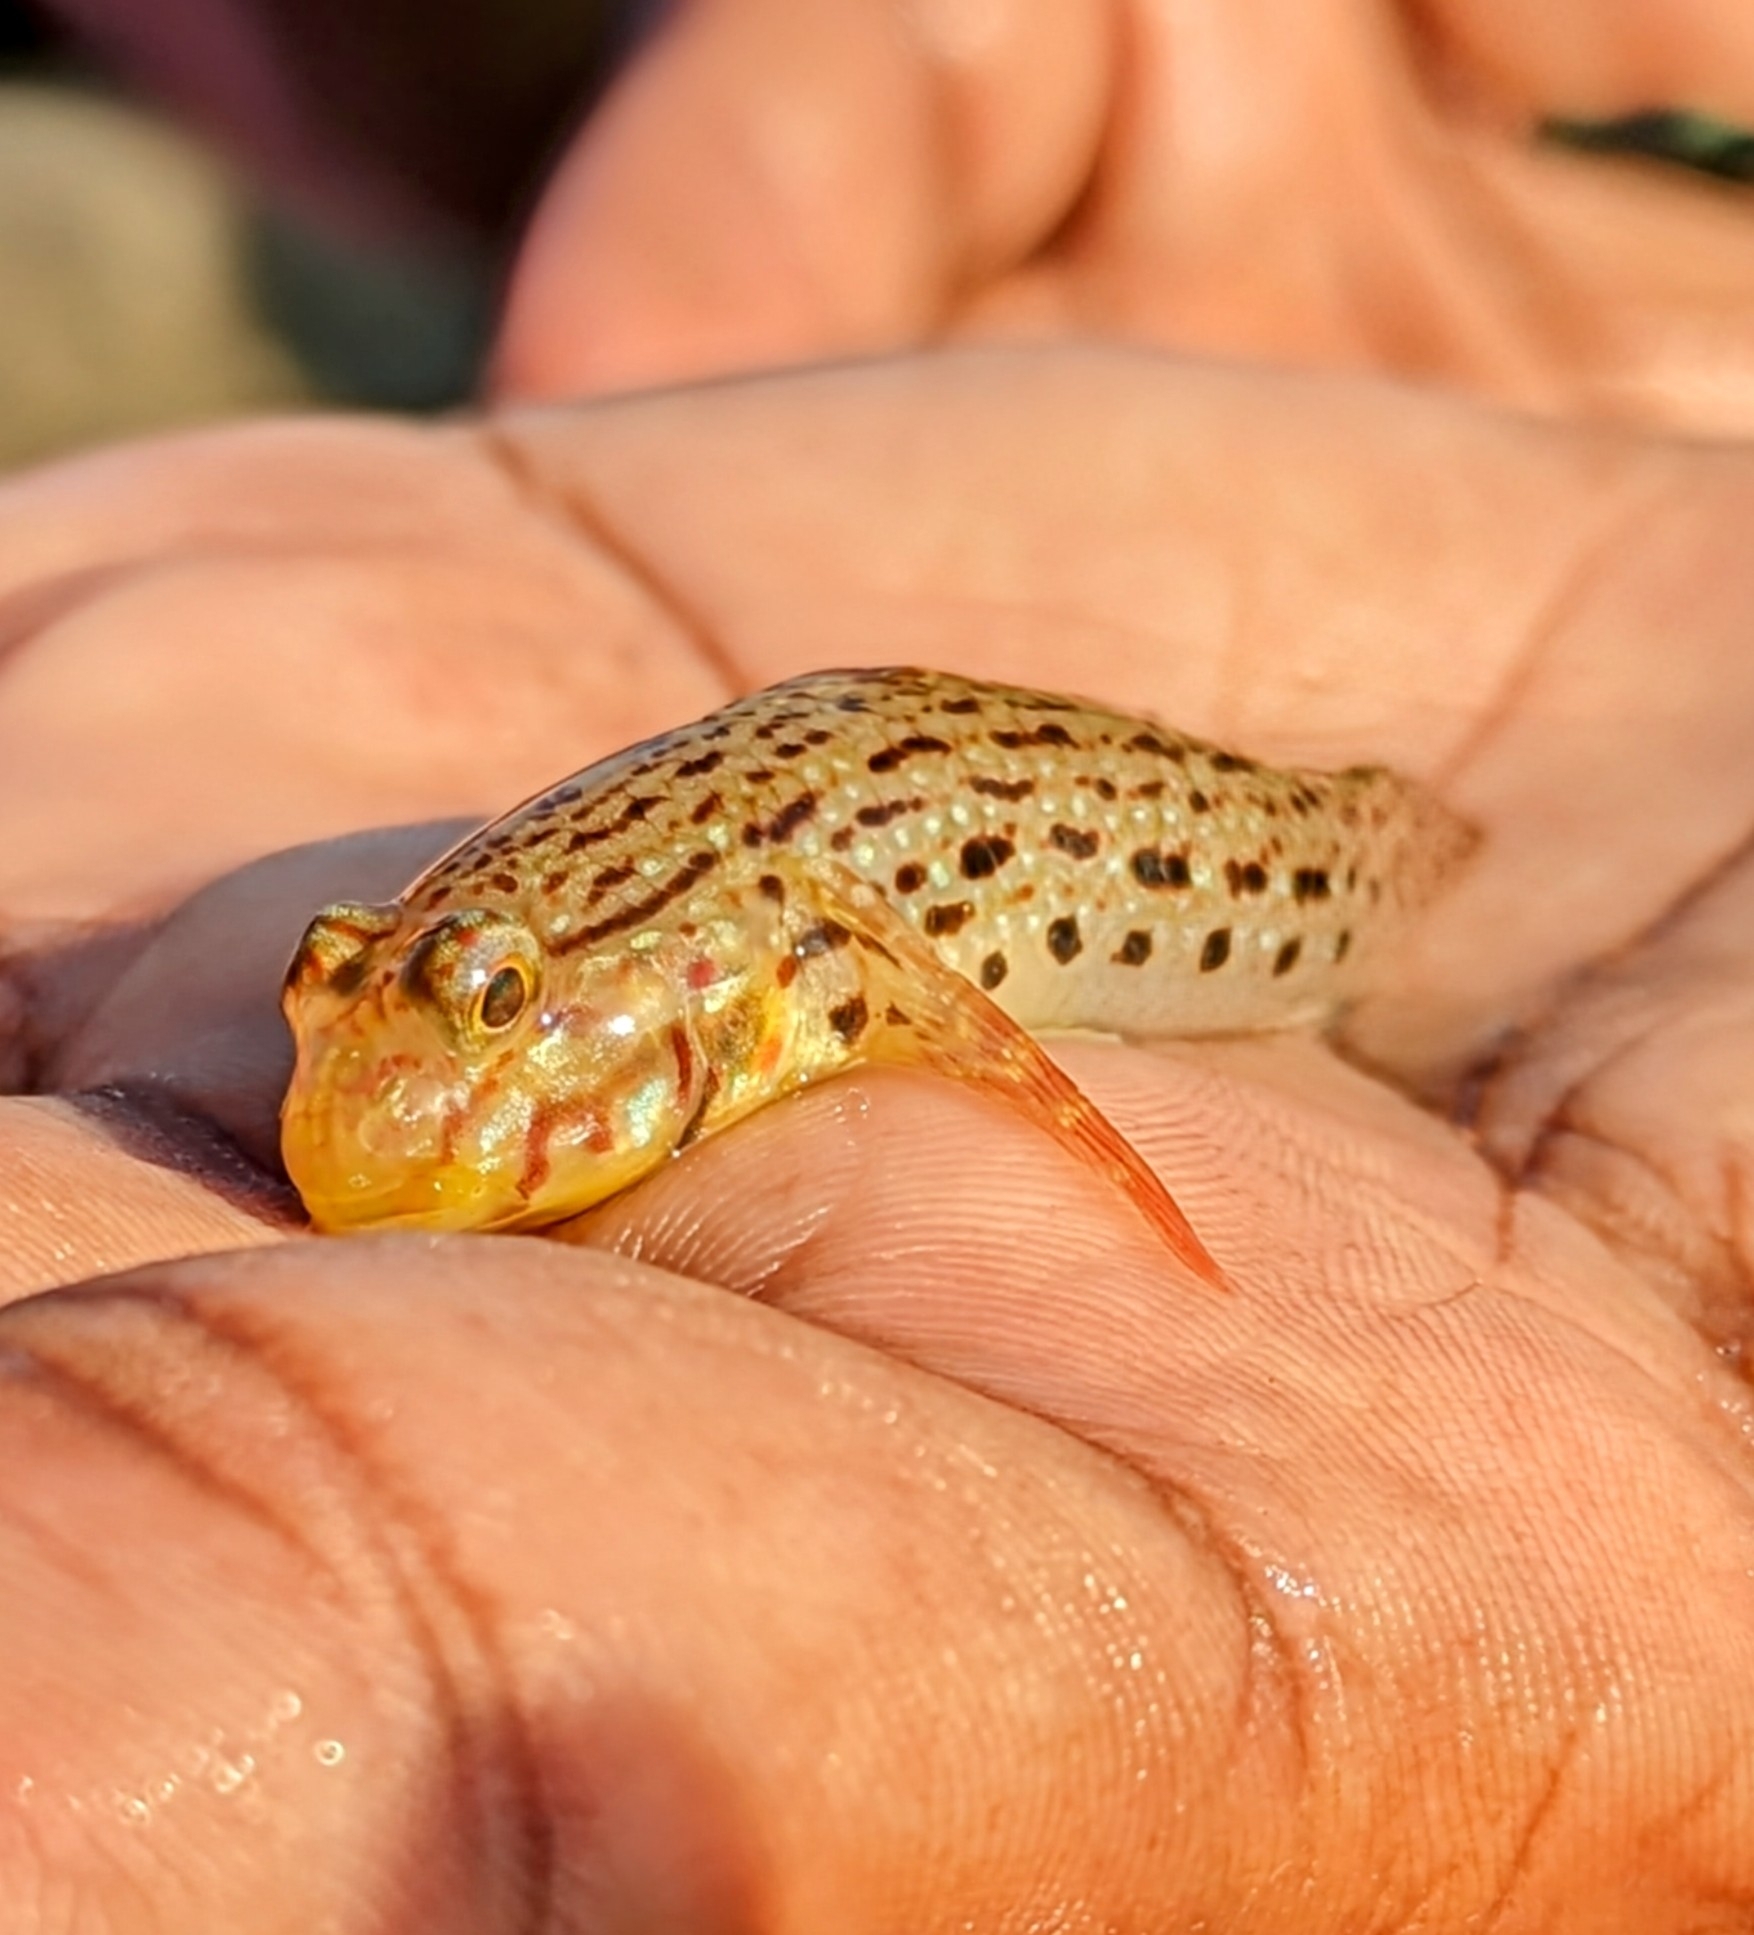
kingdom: Animalia
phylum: Chordata
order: Perciformes
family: Gobiidae
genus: Istigobius
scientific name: Istigobius ornatus
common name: Ornate goby
